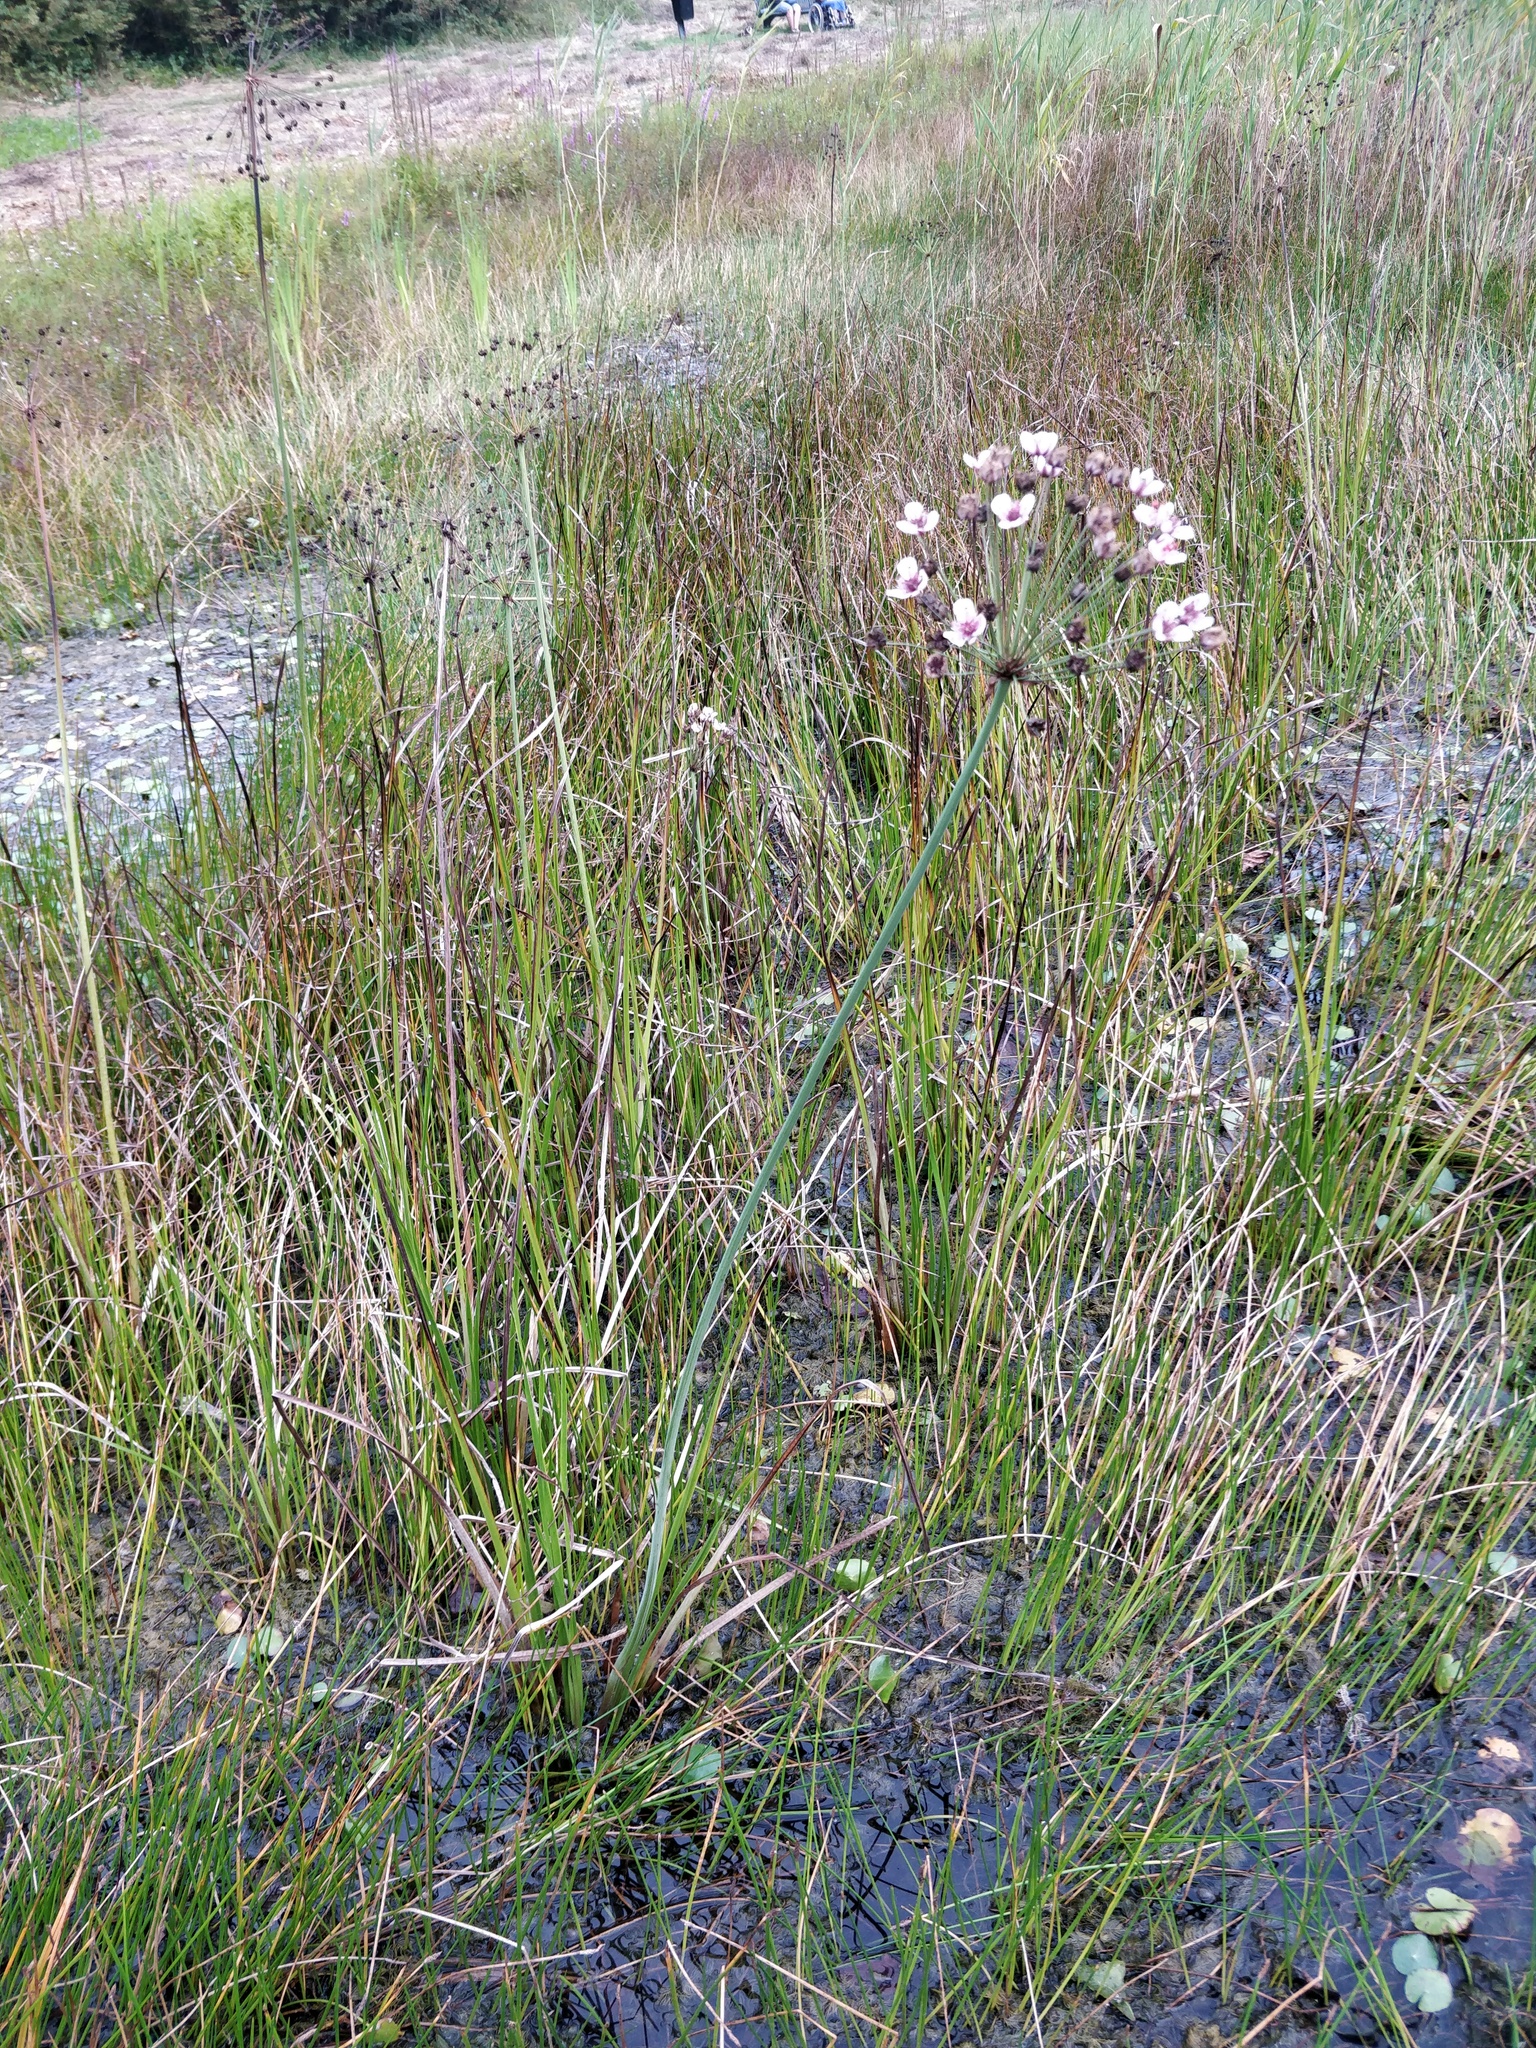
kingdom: Plantae
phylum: Tracheophyta
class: Liliopsida
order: Alismatales
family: Butomaceae
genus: Butomus
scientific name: Butomus umbellatus
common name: Flowering-rush
